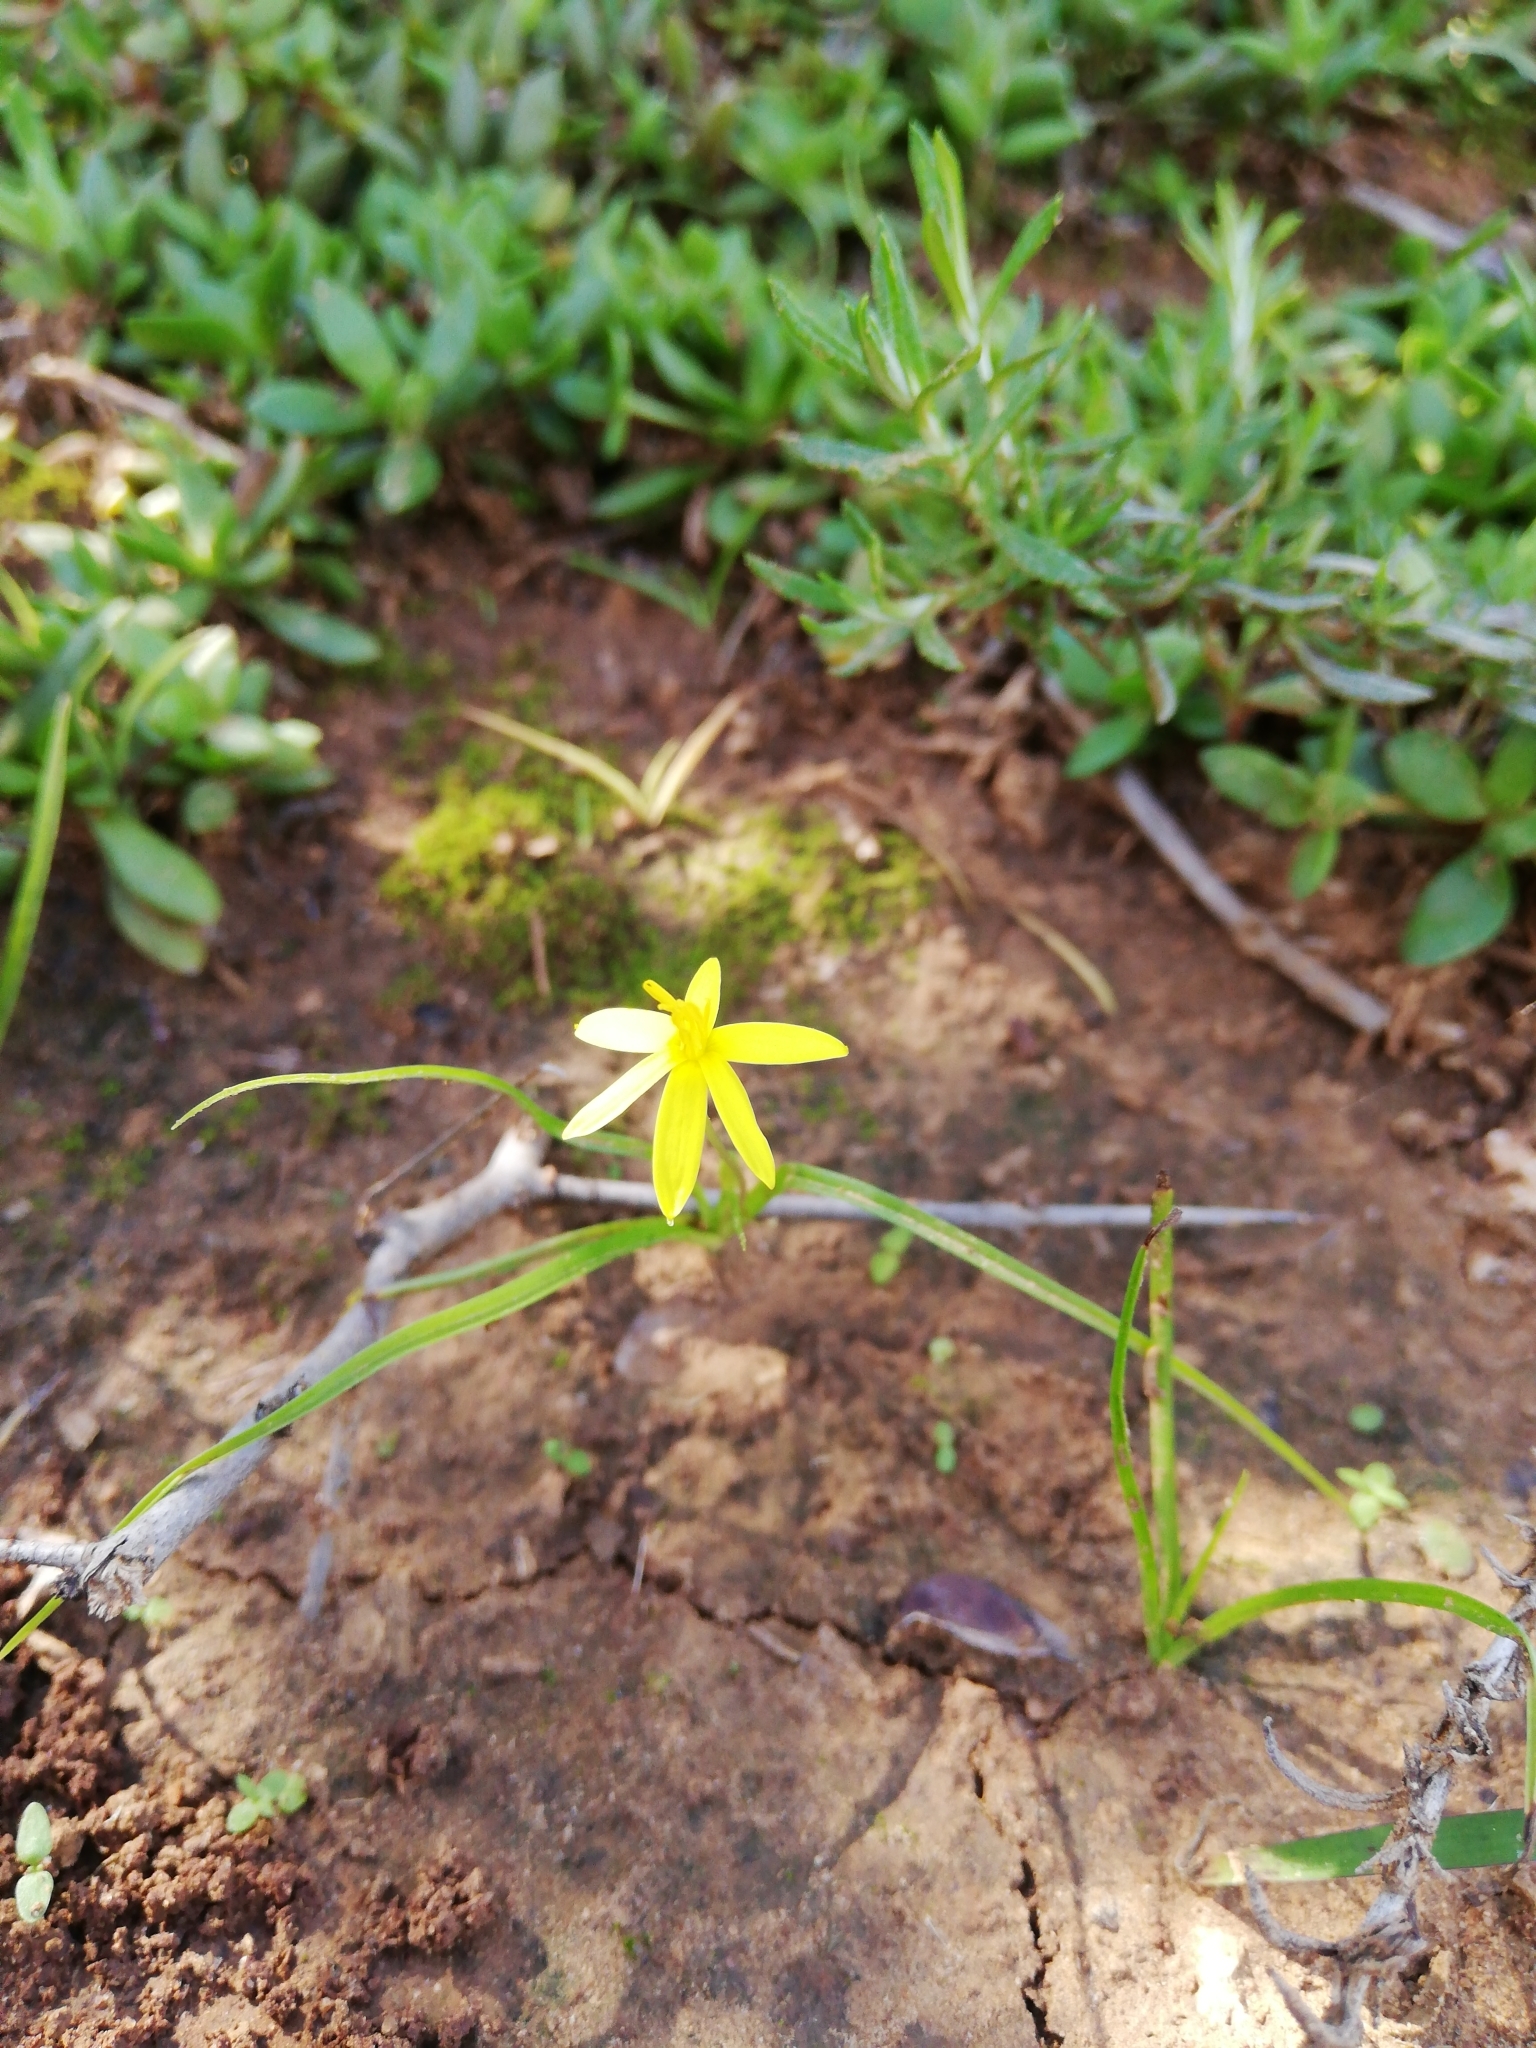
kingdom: Plantae
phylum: Tracheophyta
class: Liliopsida
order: Asparagales
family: Hypoxidaceae
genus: Empodium
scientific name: Empodium gloriosum
